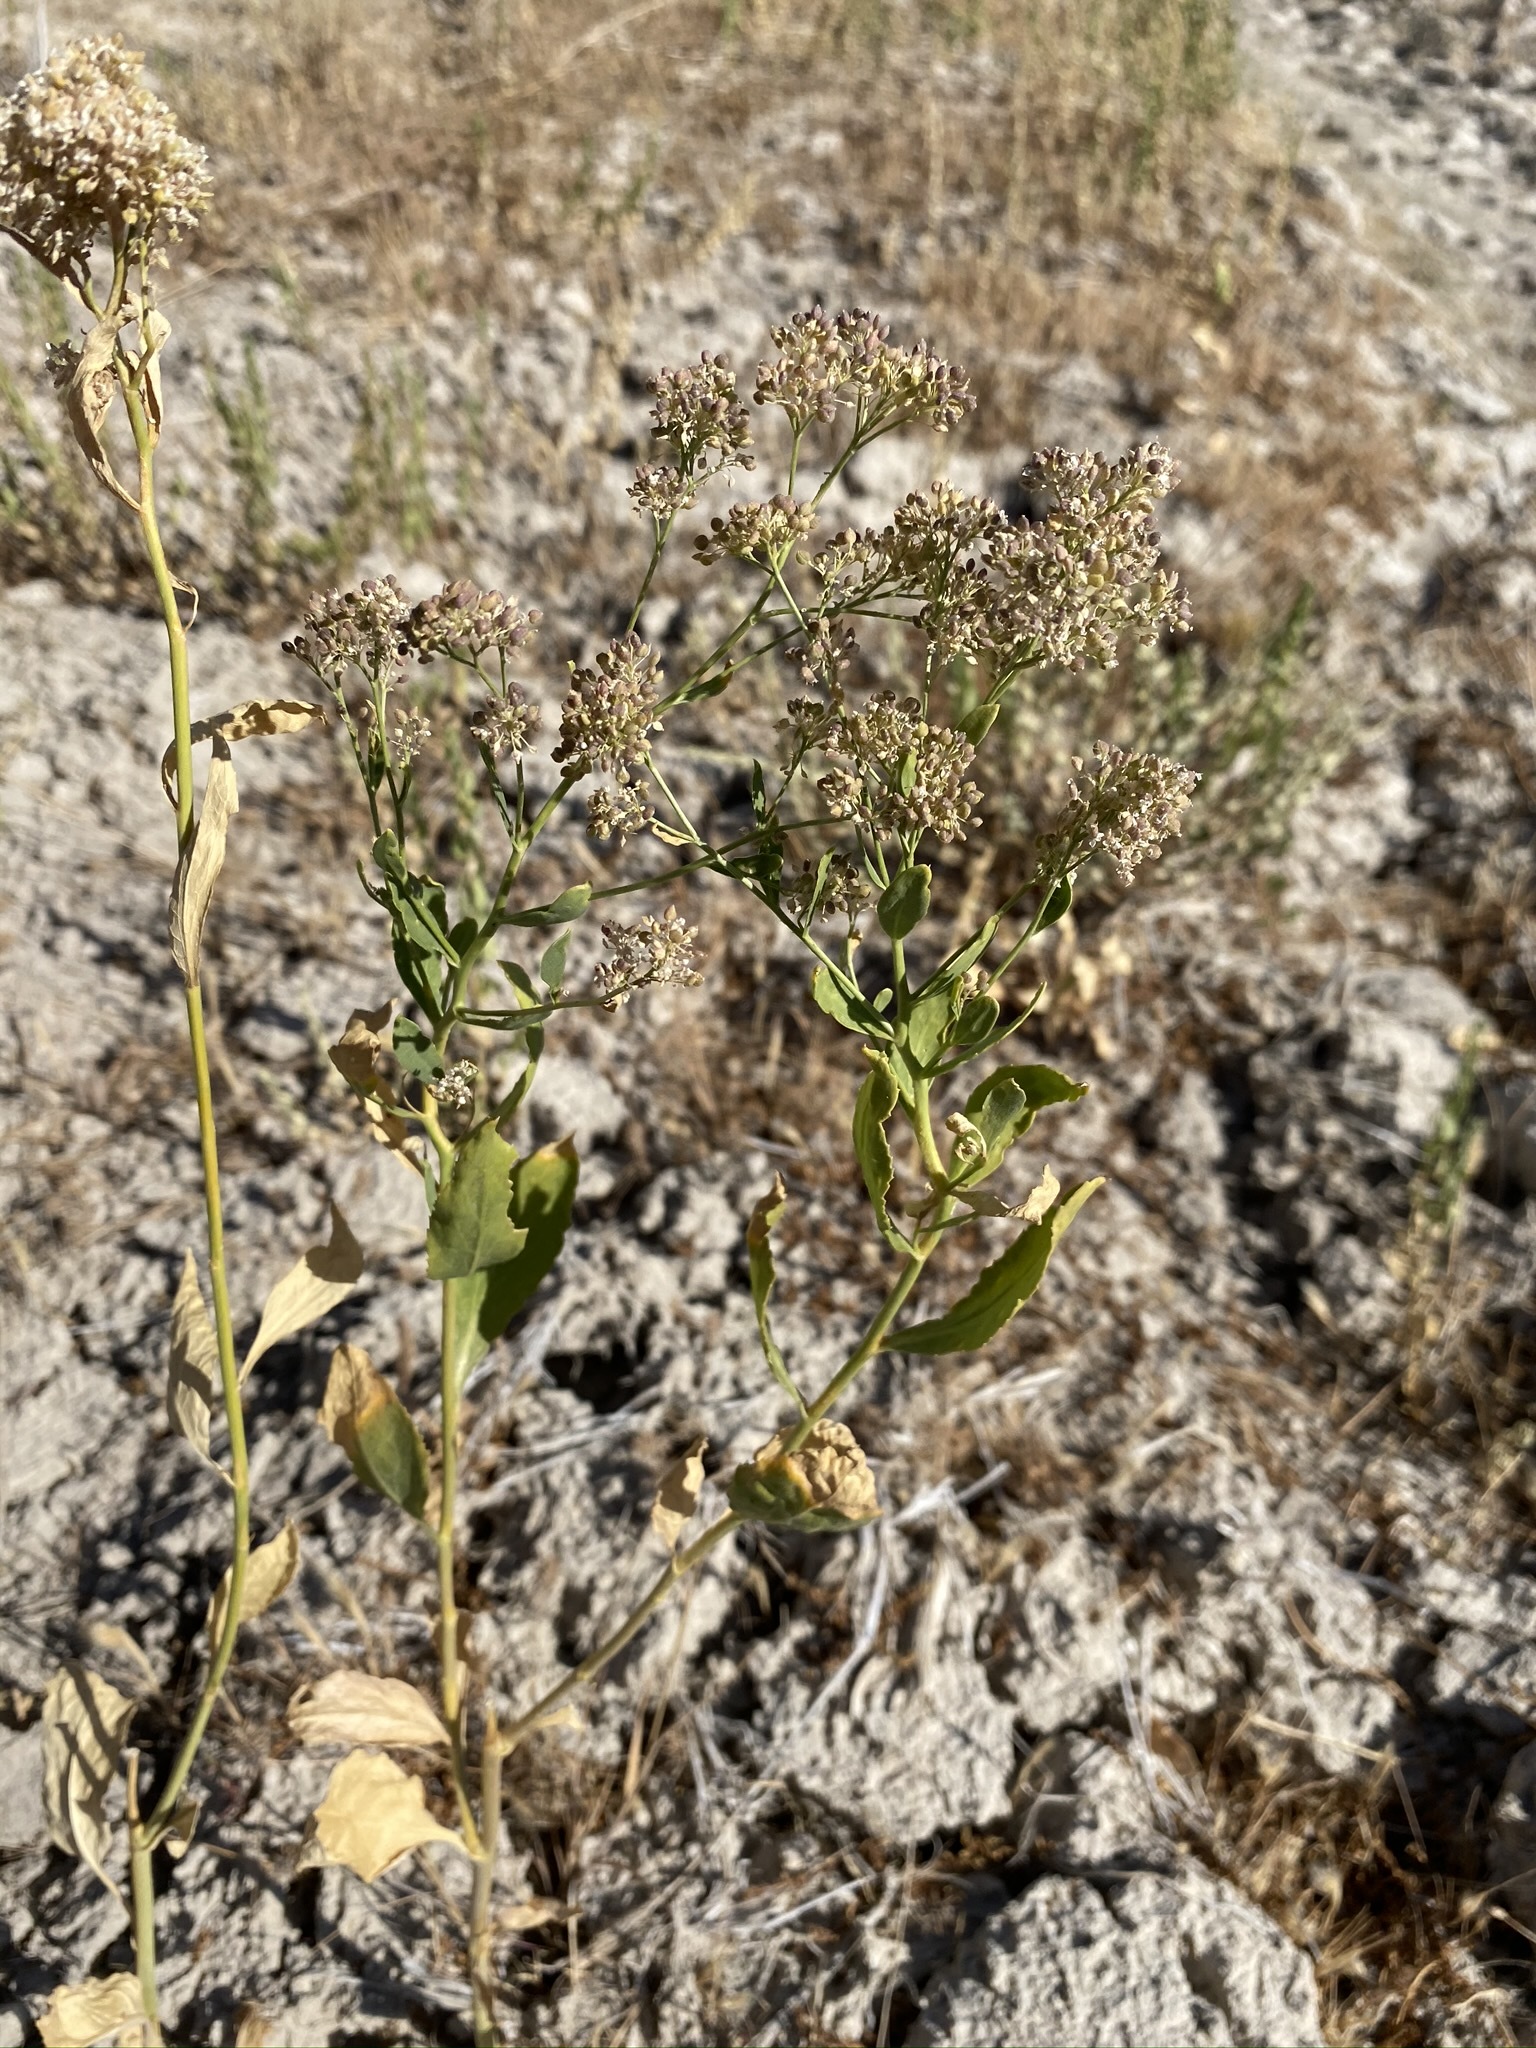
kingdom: Plantae
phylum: Tracheophyta
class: Magnoliopsida
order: Brassicales
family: Brassicaceae
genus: Lepidium
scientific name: Lepidium latifolium
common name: Dittander
